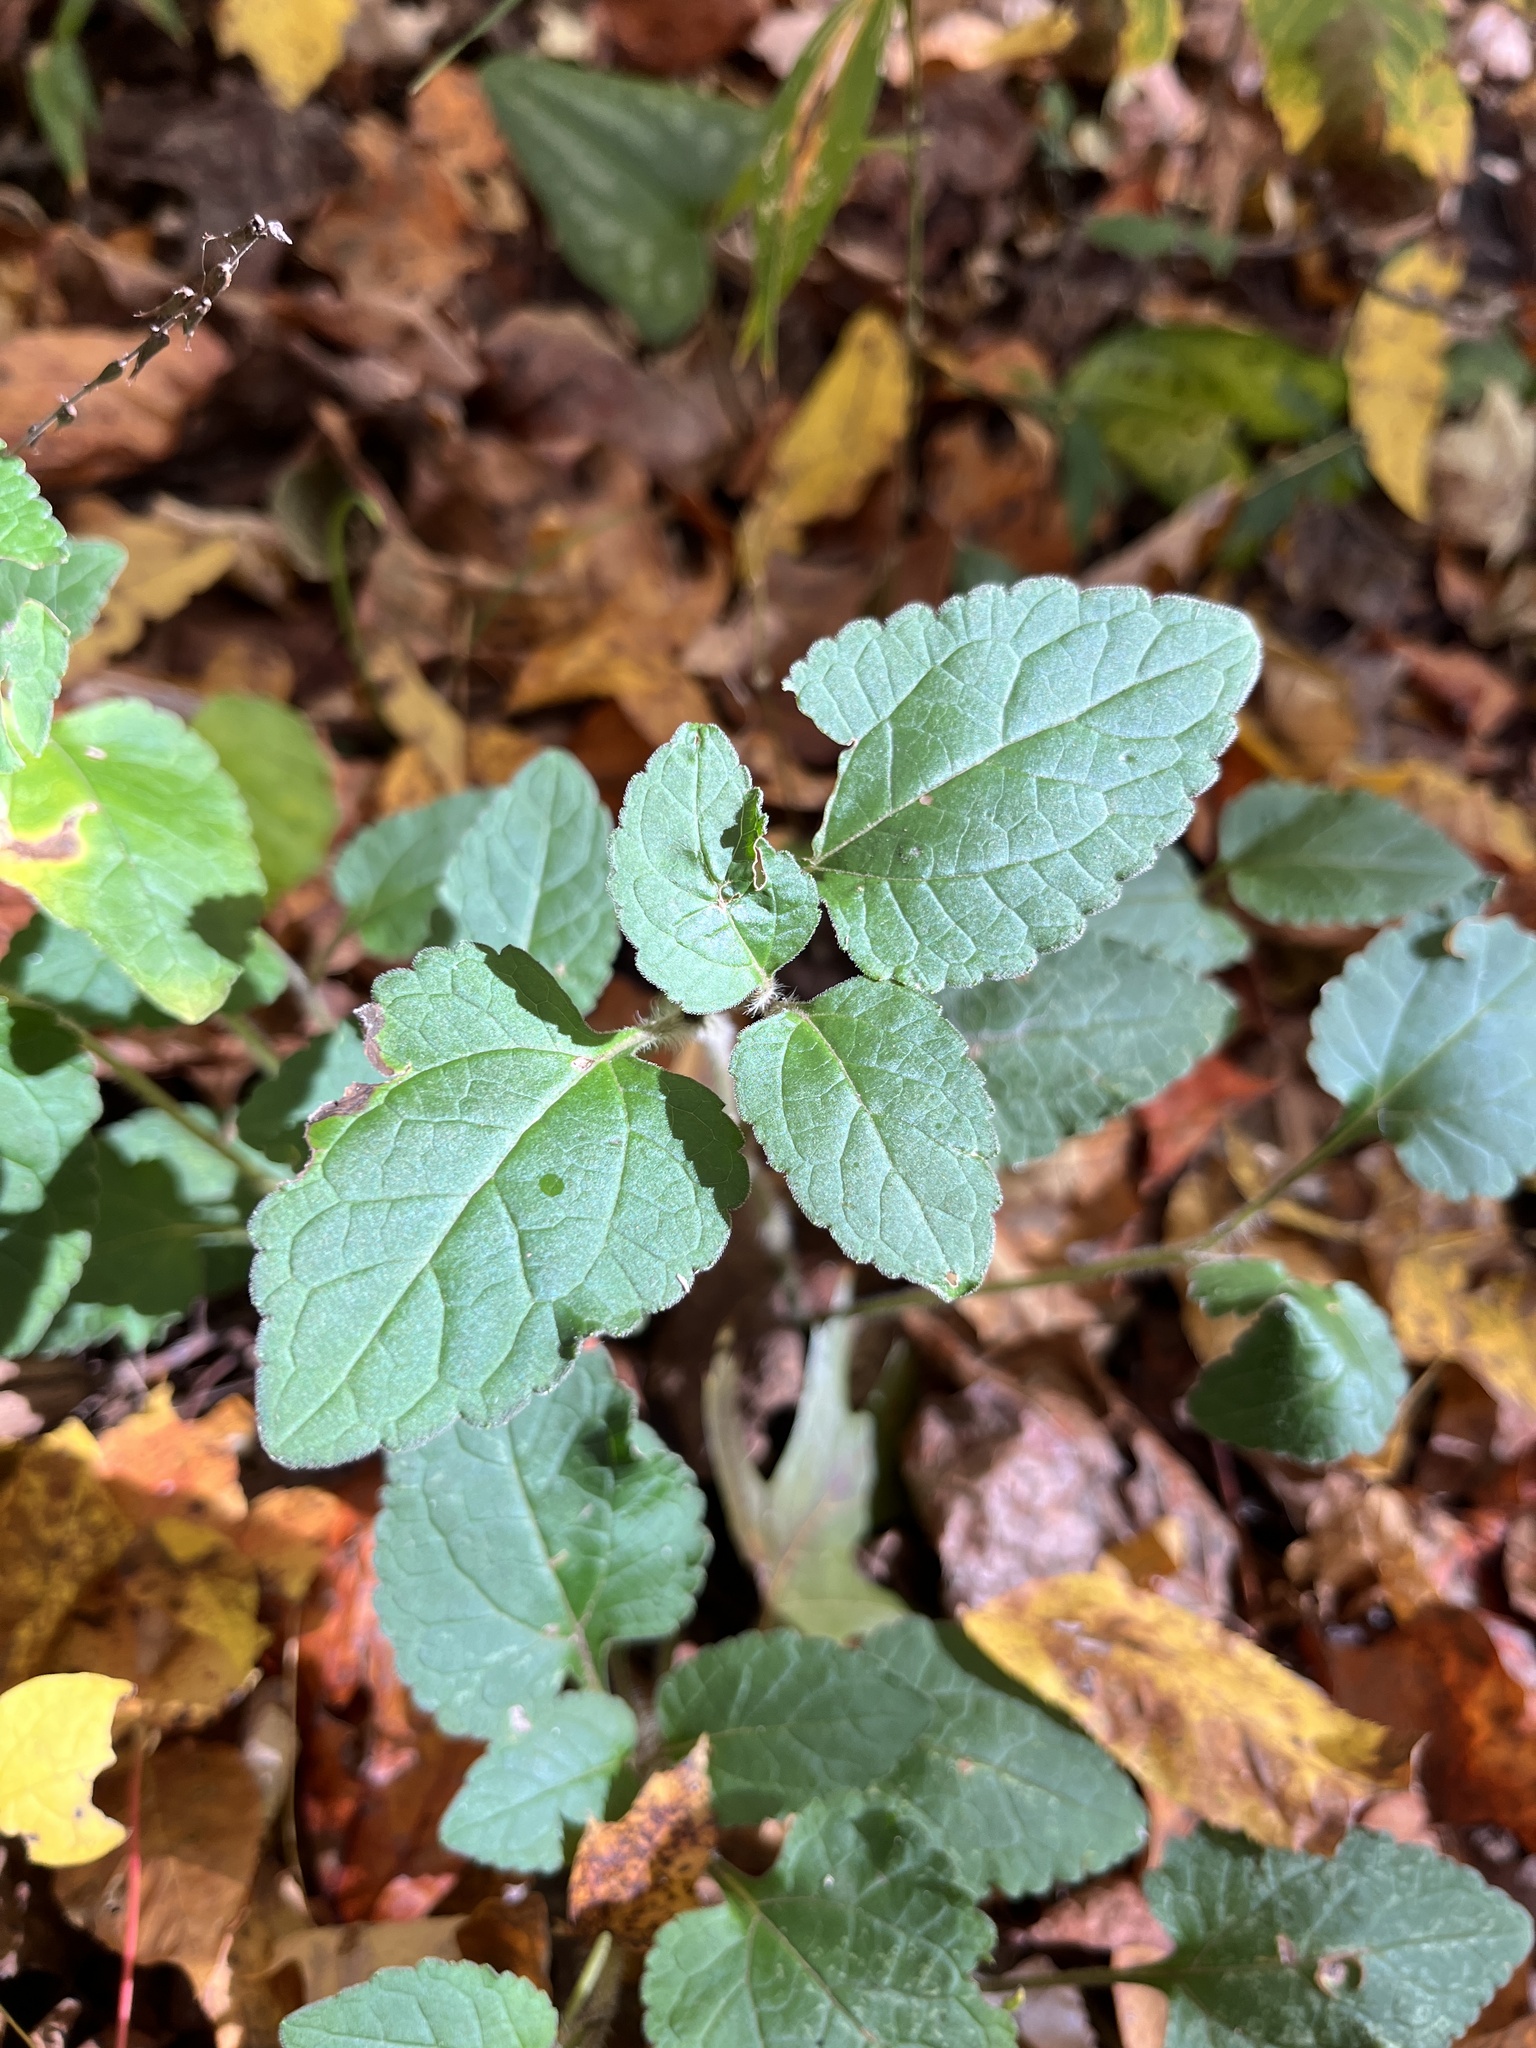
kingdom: Plantae
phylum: Tracheophyta
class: Magnoliopsida
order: Lamiales
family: Lamiaceae
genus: Scutellaria
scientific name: Scutellaria elliptica
